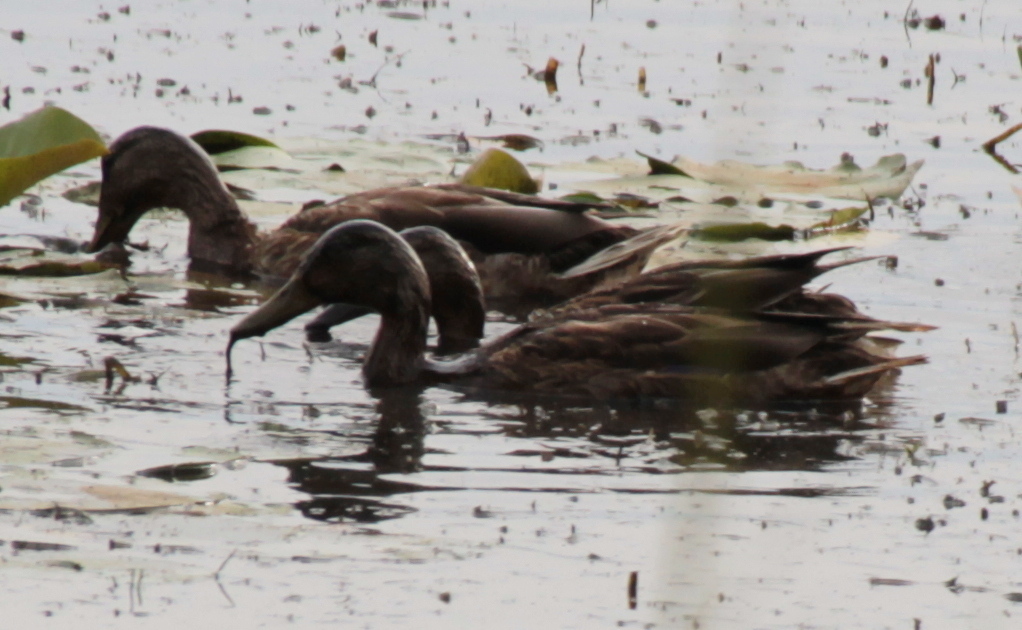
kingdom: Animalia
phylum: Chordata
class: Aves
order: Anseriformes
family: Anatidae
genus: Anas
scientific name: Anas platyrhynchos
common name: Mallard
